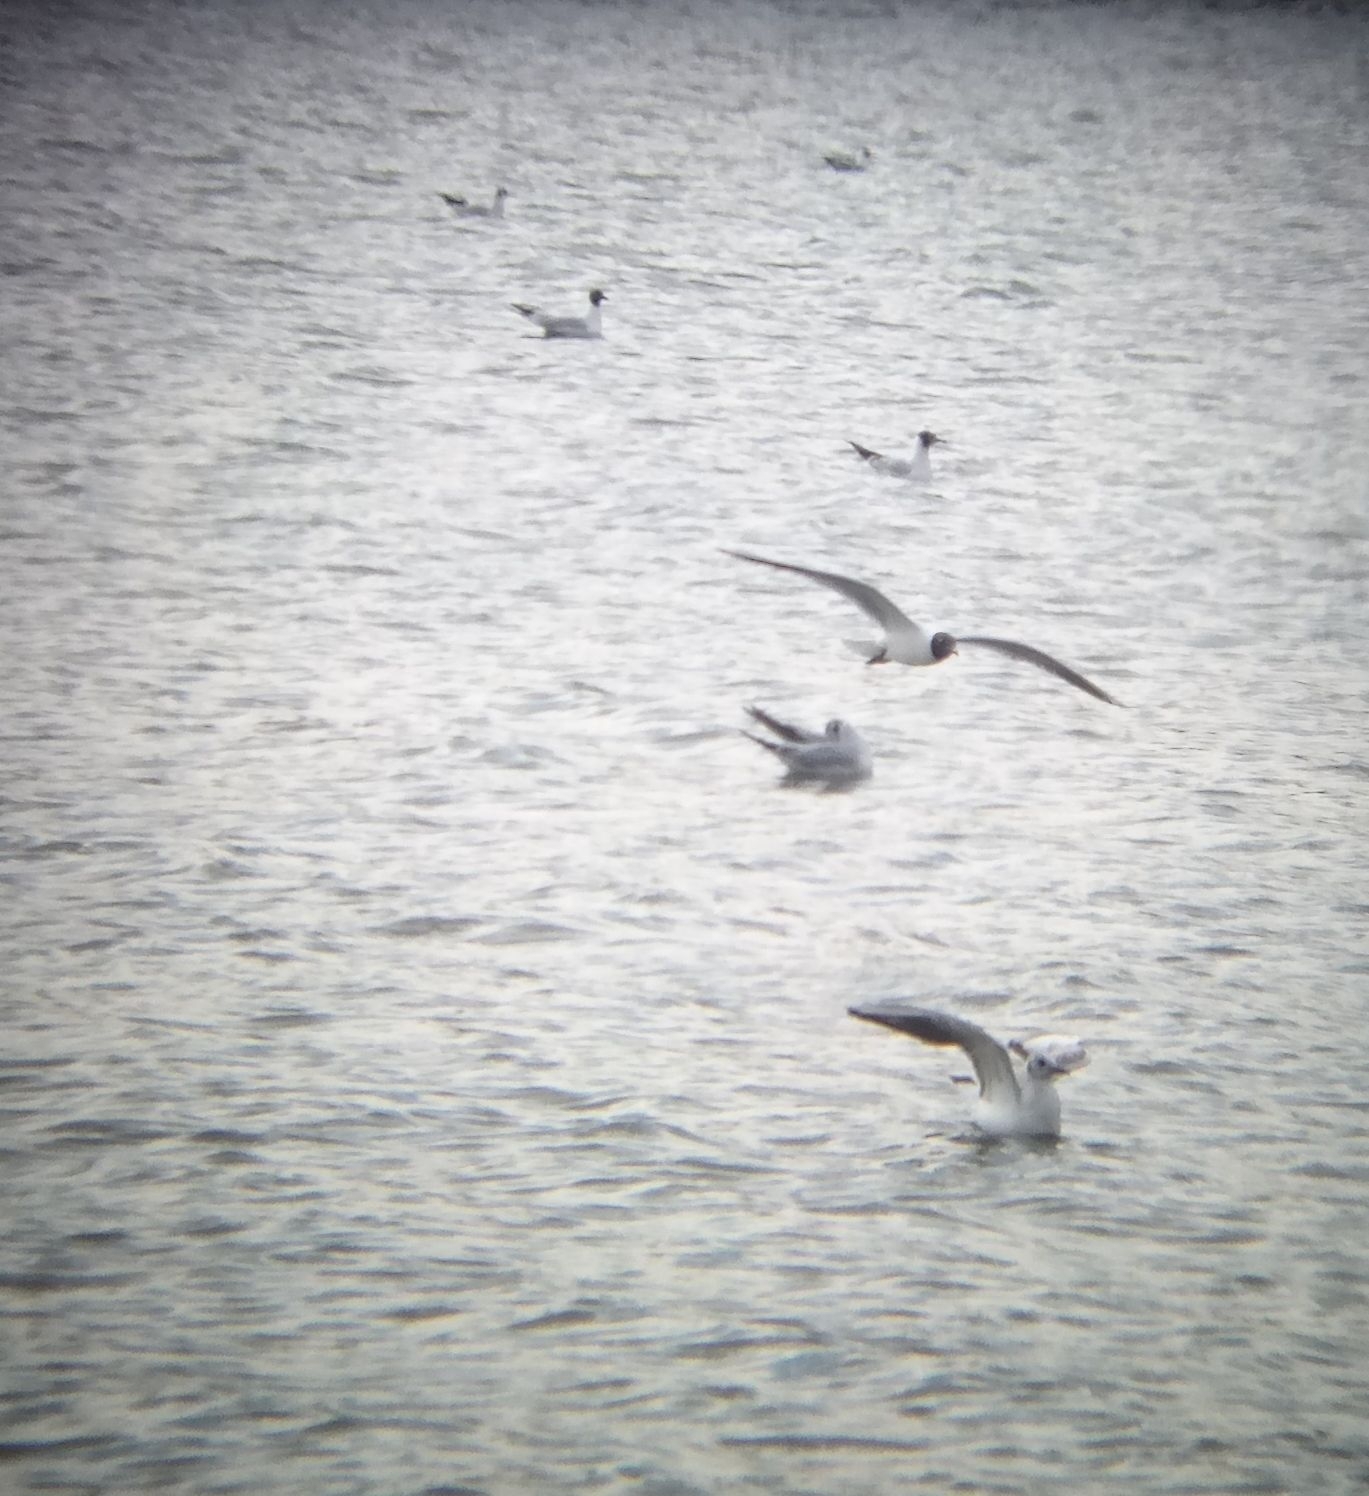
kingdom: Animalia
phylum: Chordata
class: Aves
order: Charadriiformes
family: Laridae
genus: Chroicocephalus
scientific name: Chroicocephalus ridibundus
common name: Black-headed gull
